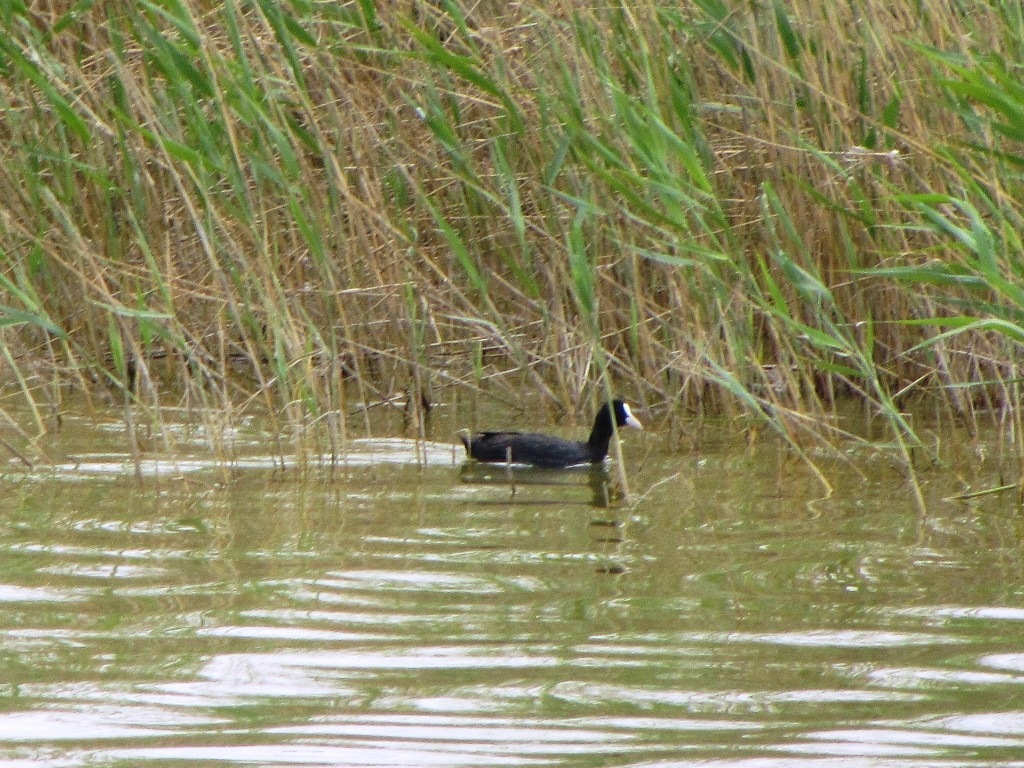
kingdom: Animalia
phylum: Chordata
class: Aves
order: Gruiformes
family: Rallidae
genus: Fulica
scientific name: Fulica atra
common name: Eurasian coot
